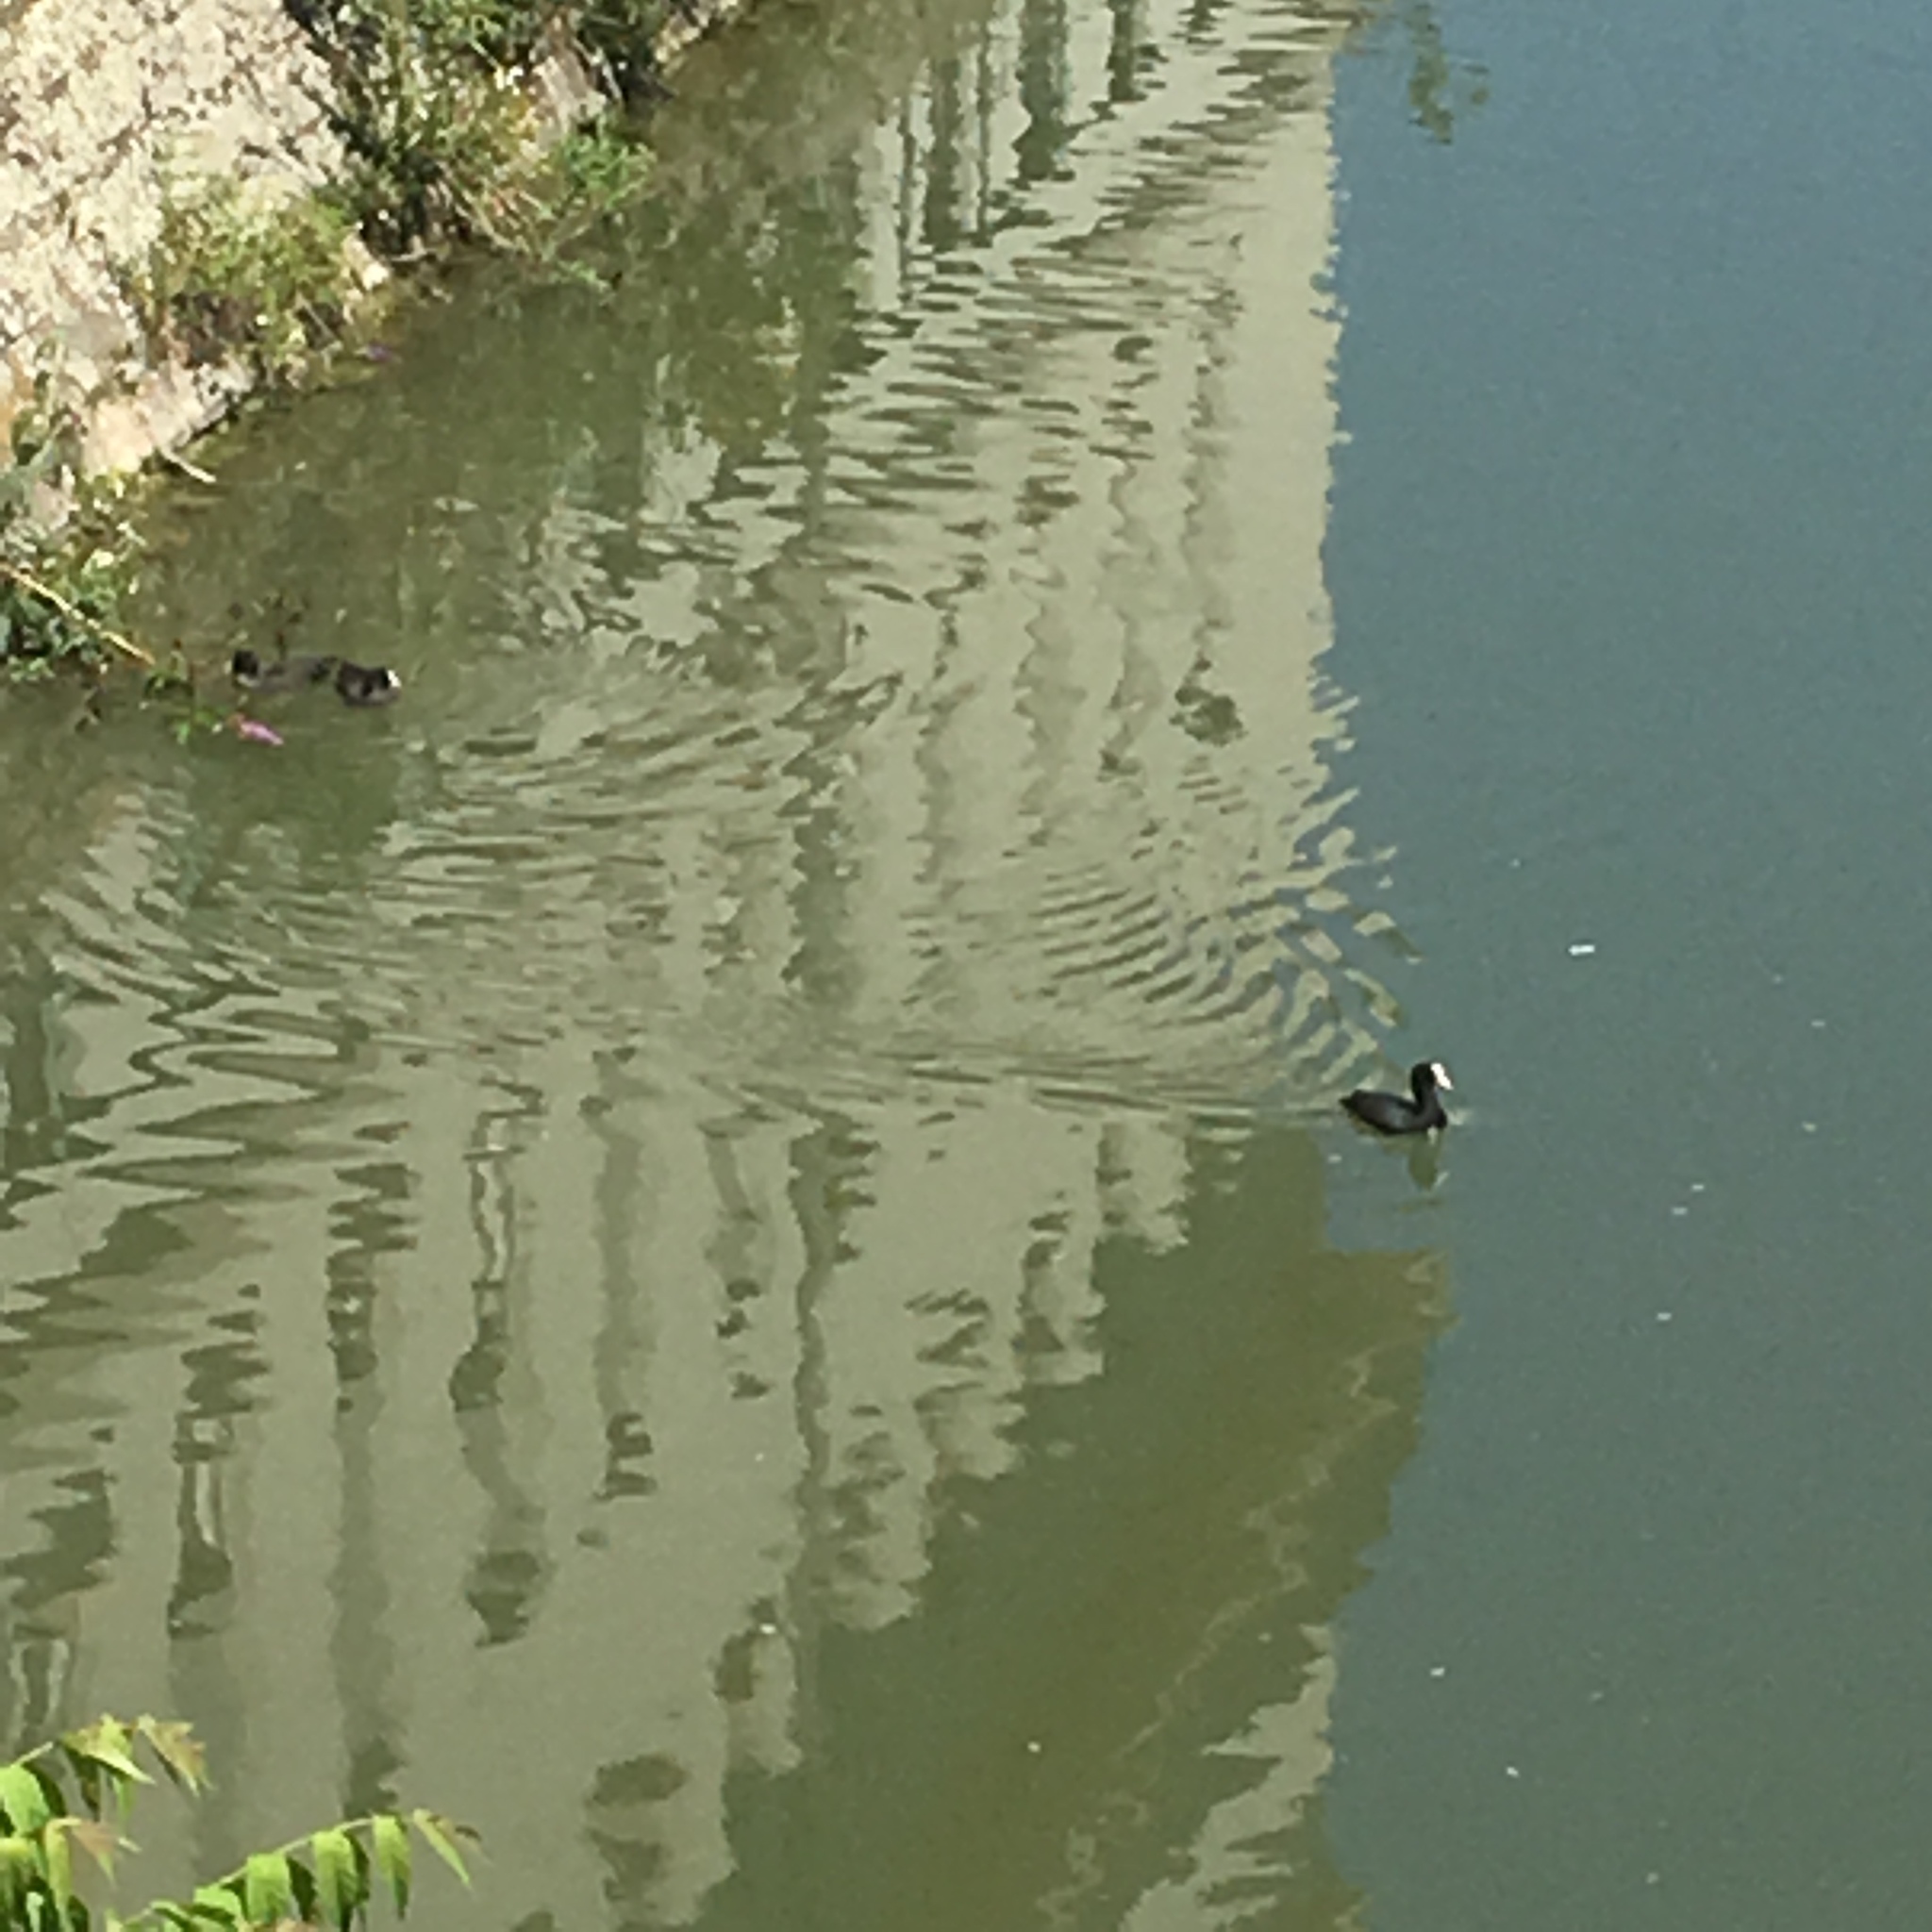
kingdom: Animalia
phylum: Chordata
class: Aves
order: Gruiformes
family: Rallidae
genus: Fulica
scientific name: Fulica atra
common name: Eurasian coot
